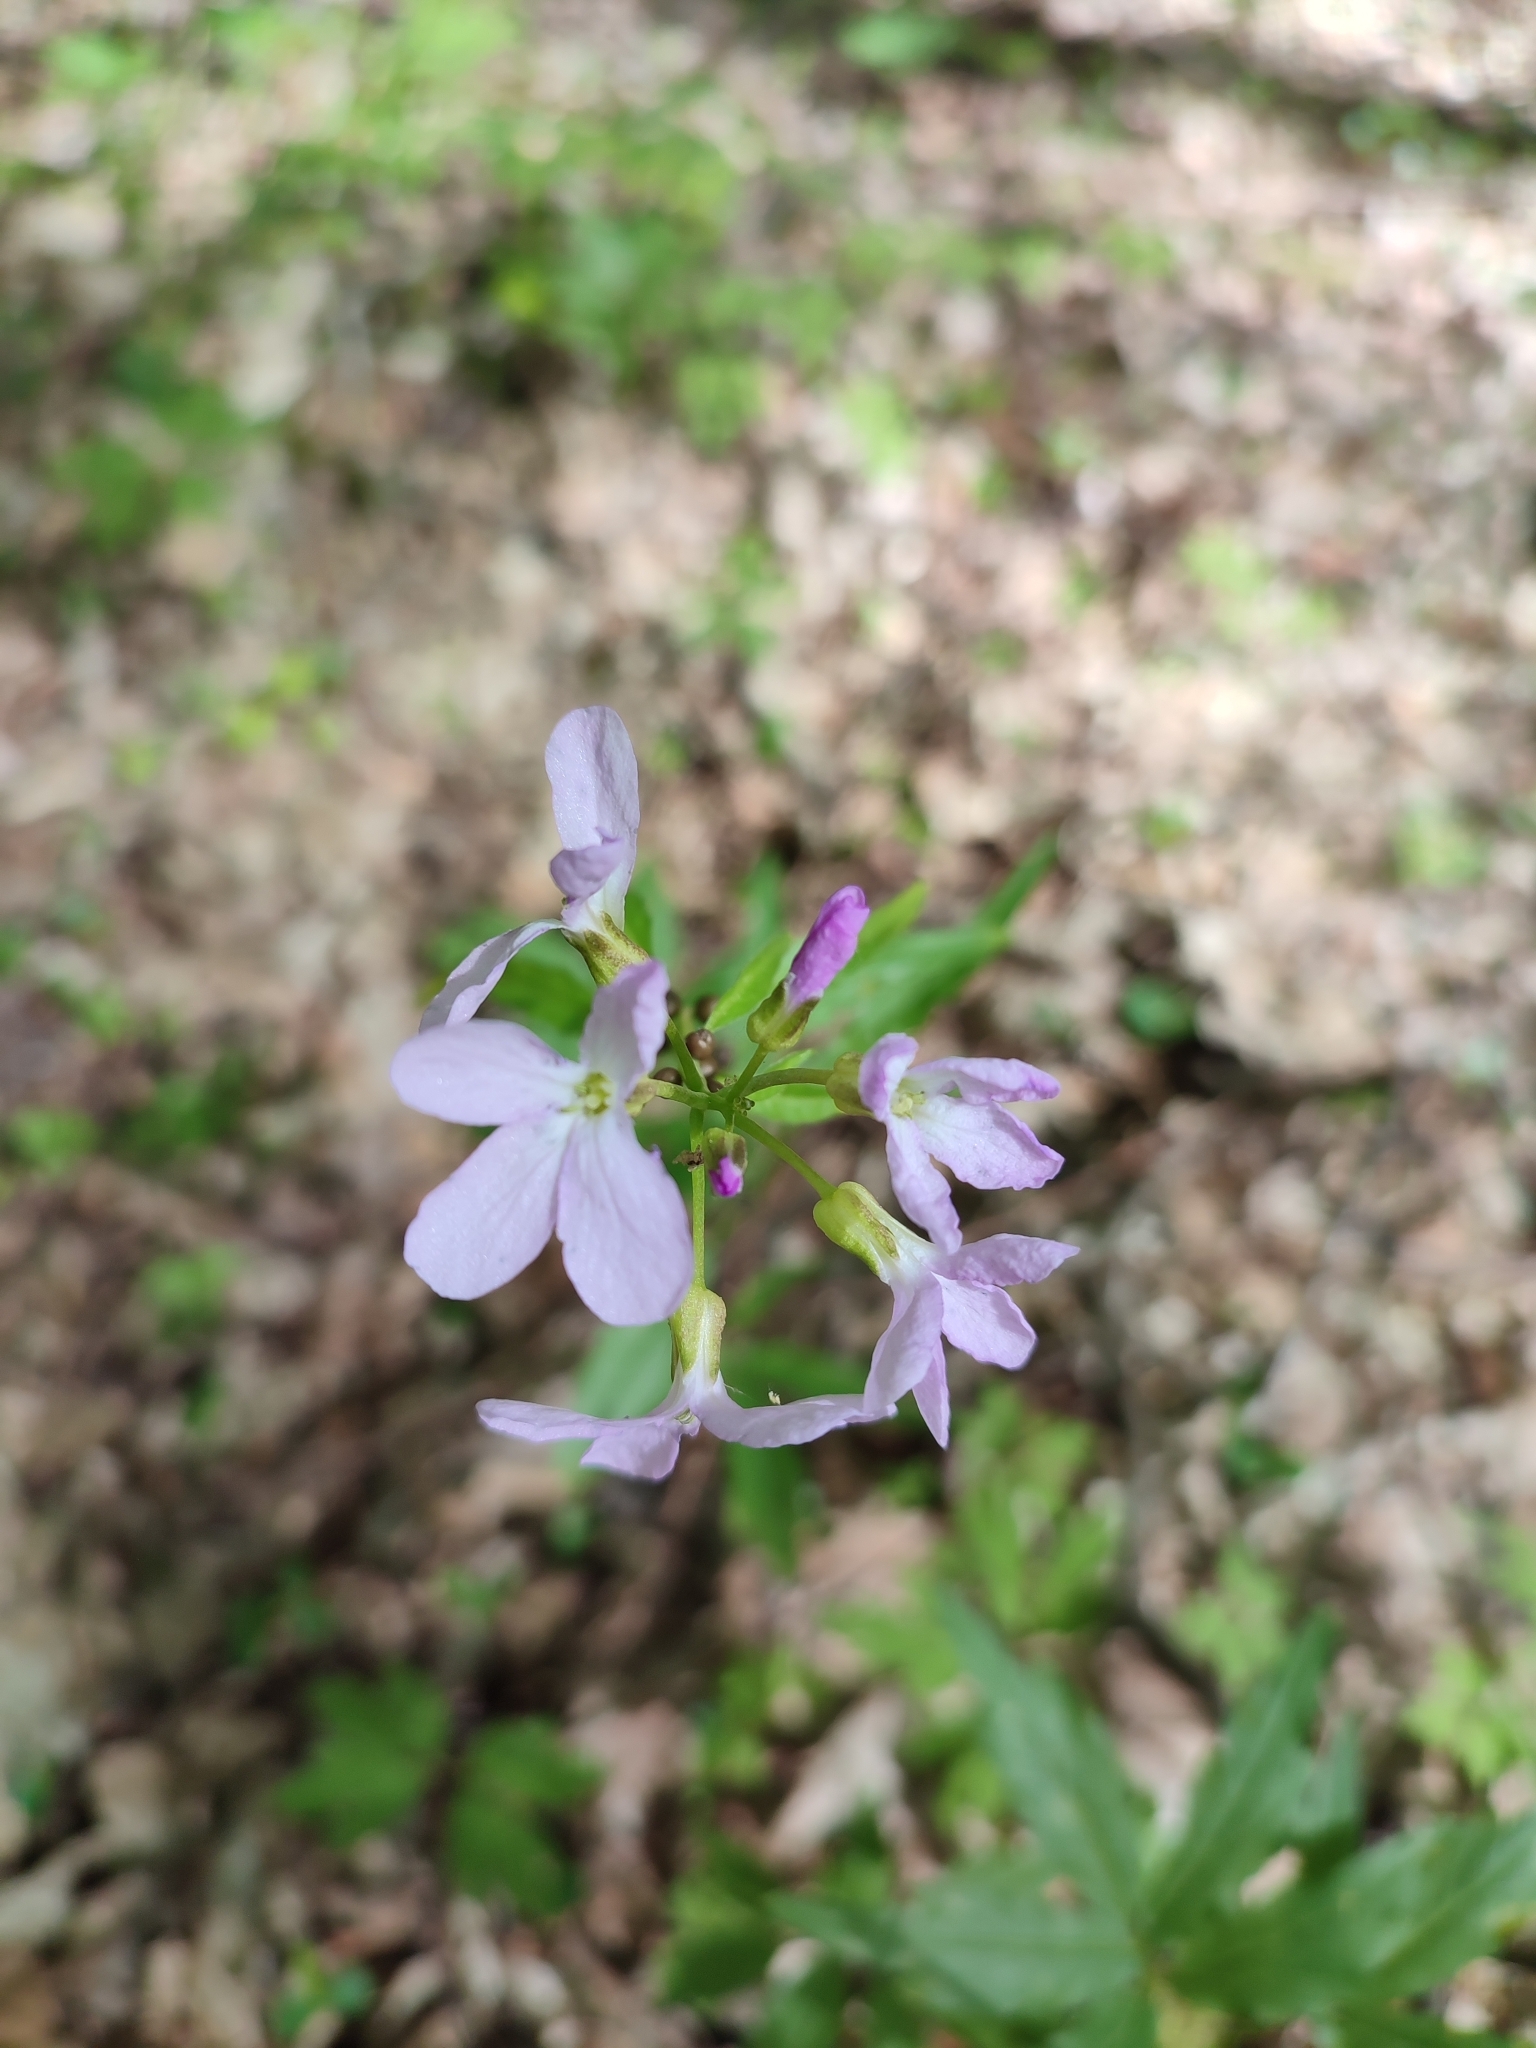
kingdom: Plantae
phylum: Tracheophyta
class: Magnoliopsida
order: Brassicales
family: Brassicaceae
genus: Cardamine
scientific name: Cardamine bulbifera
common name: Coralroot bittercress
